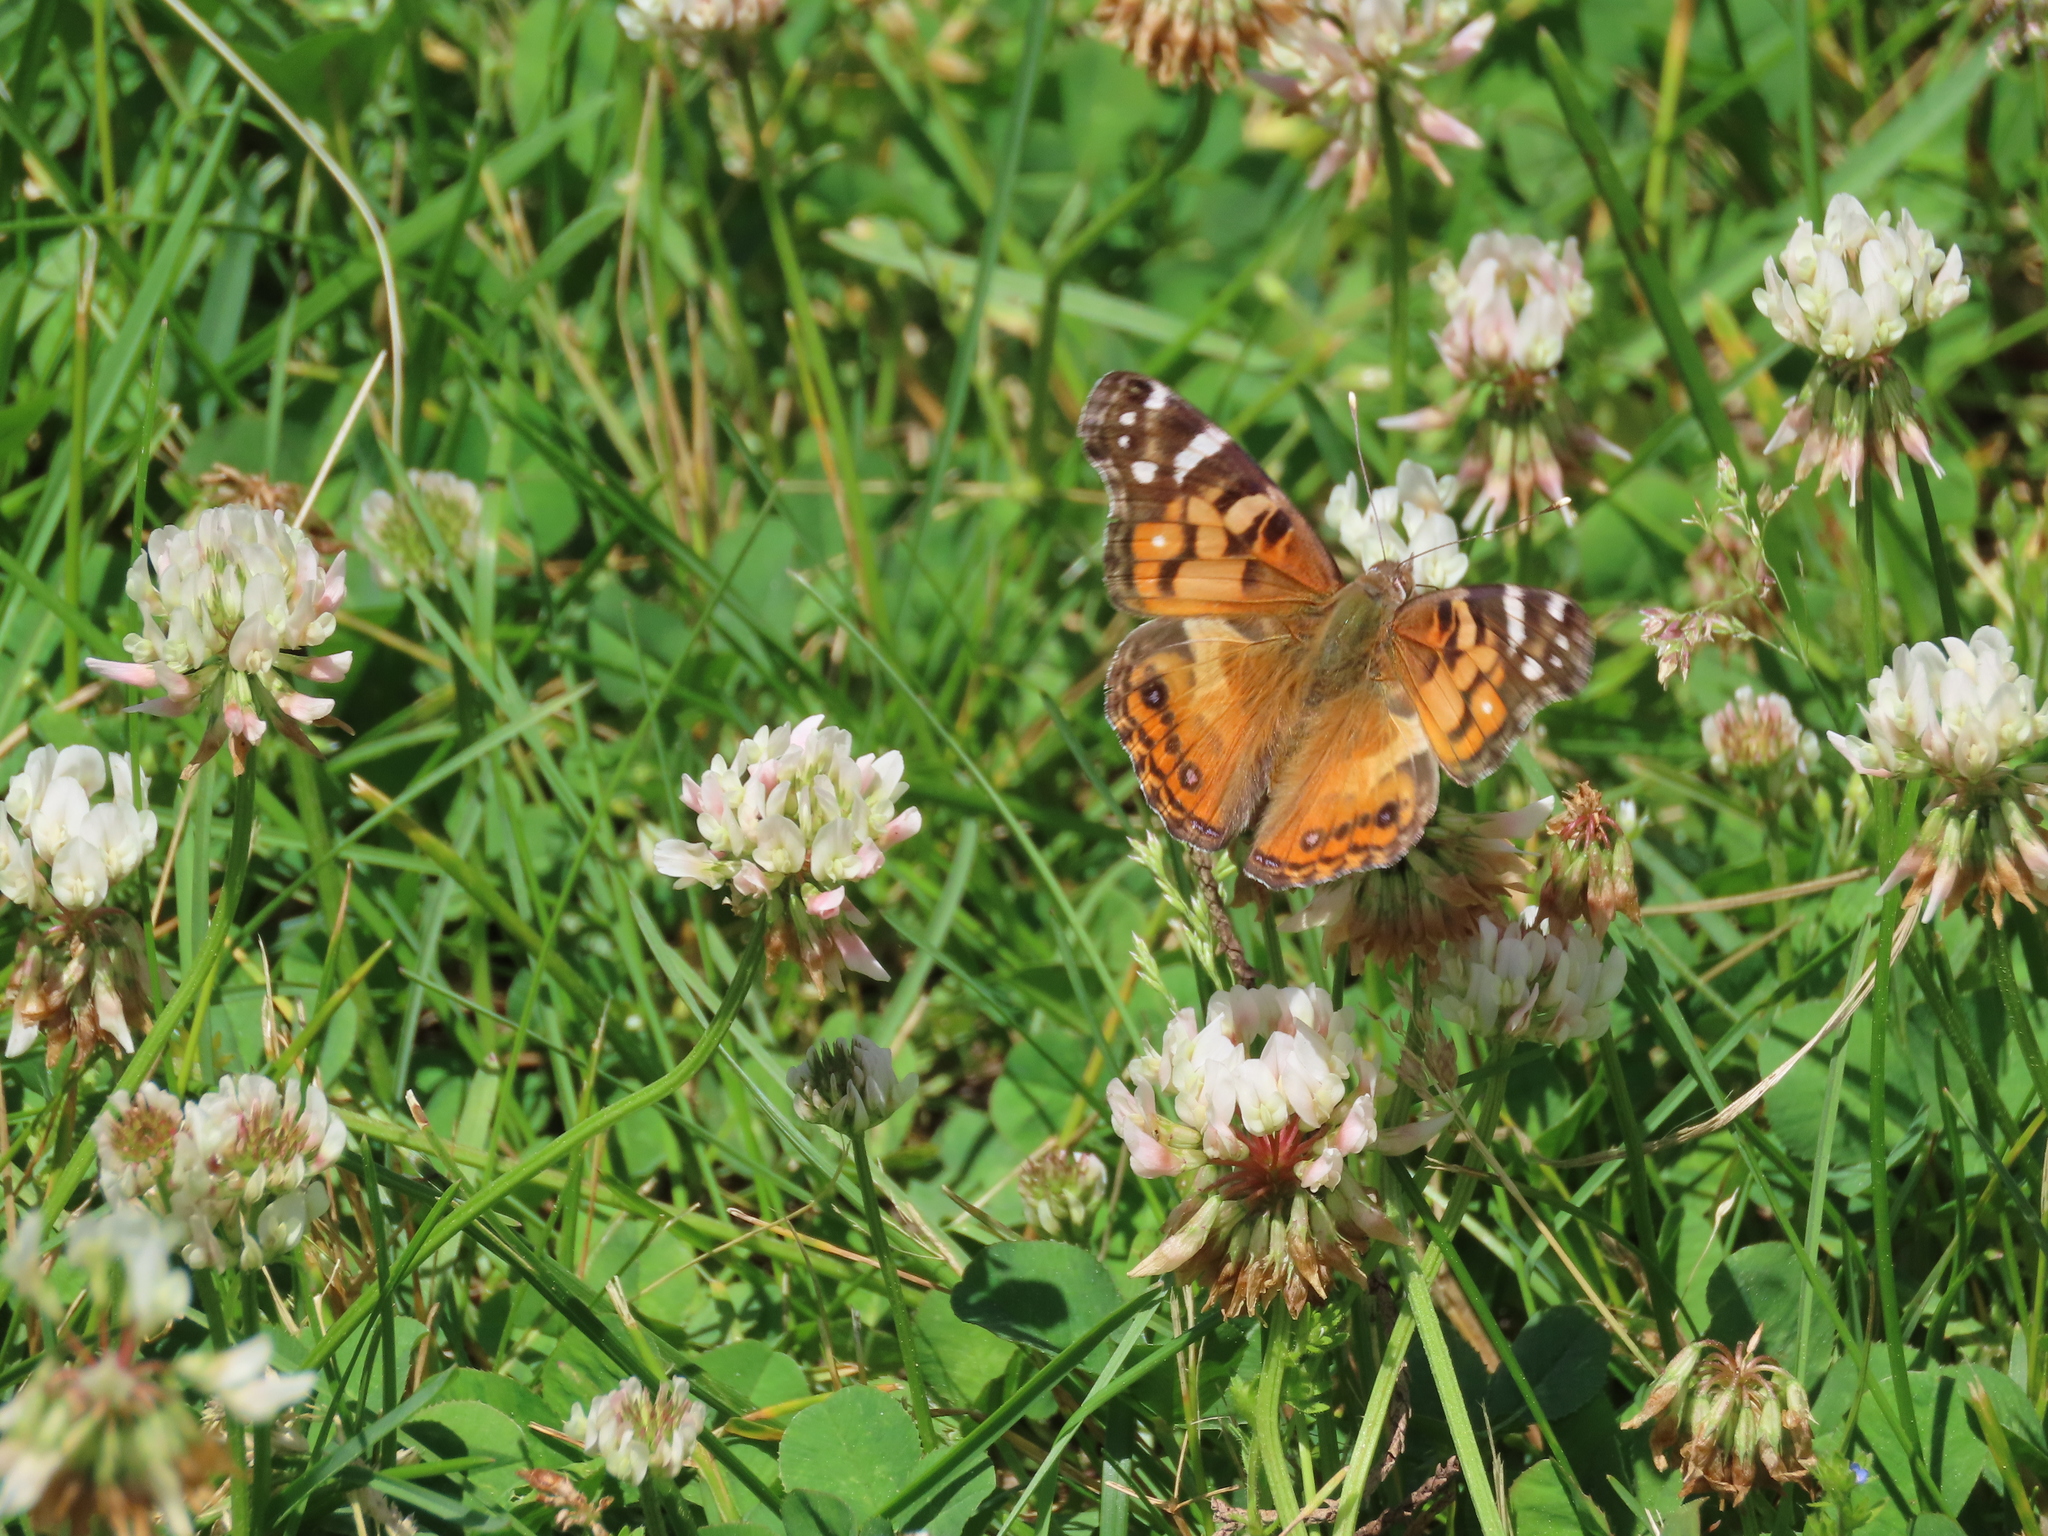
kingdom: Animalia
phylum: Arthropoda
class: Insecta
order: Lepidoptera
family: Nymphalidae
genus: Vanessa
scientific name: Vanessa virginiensis
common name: American lady
